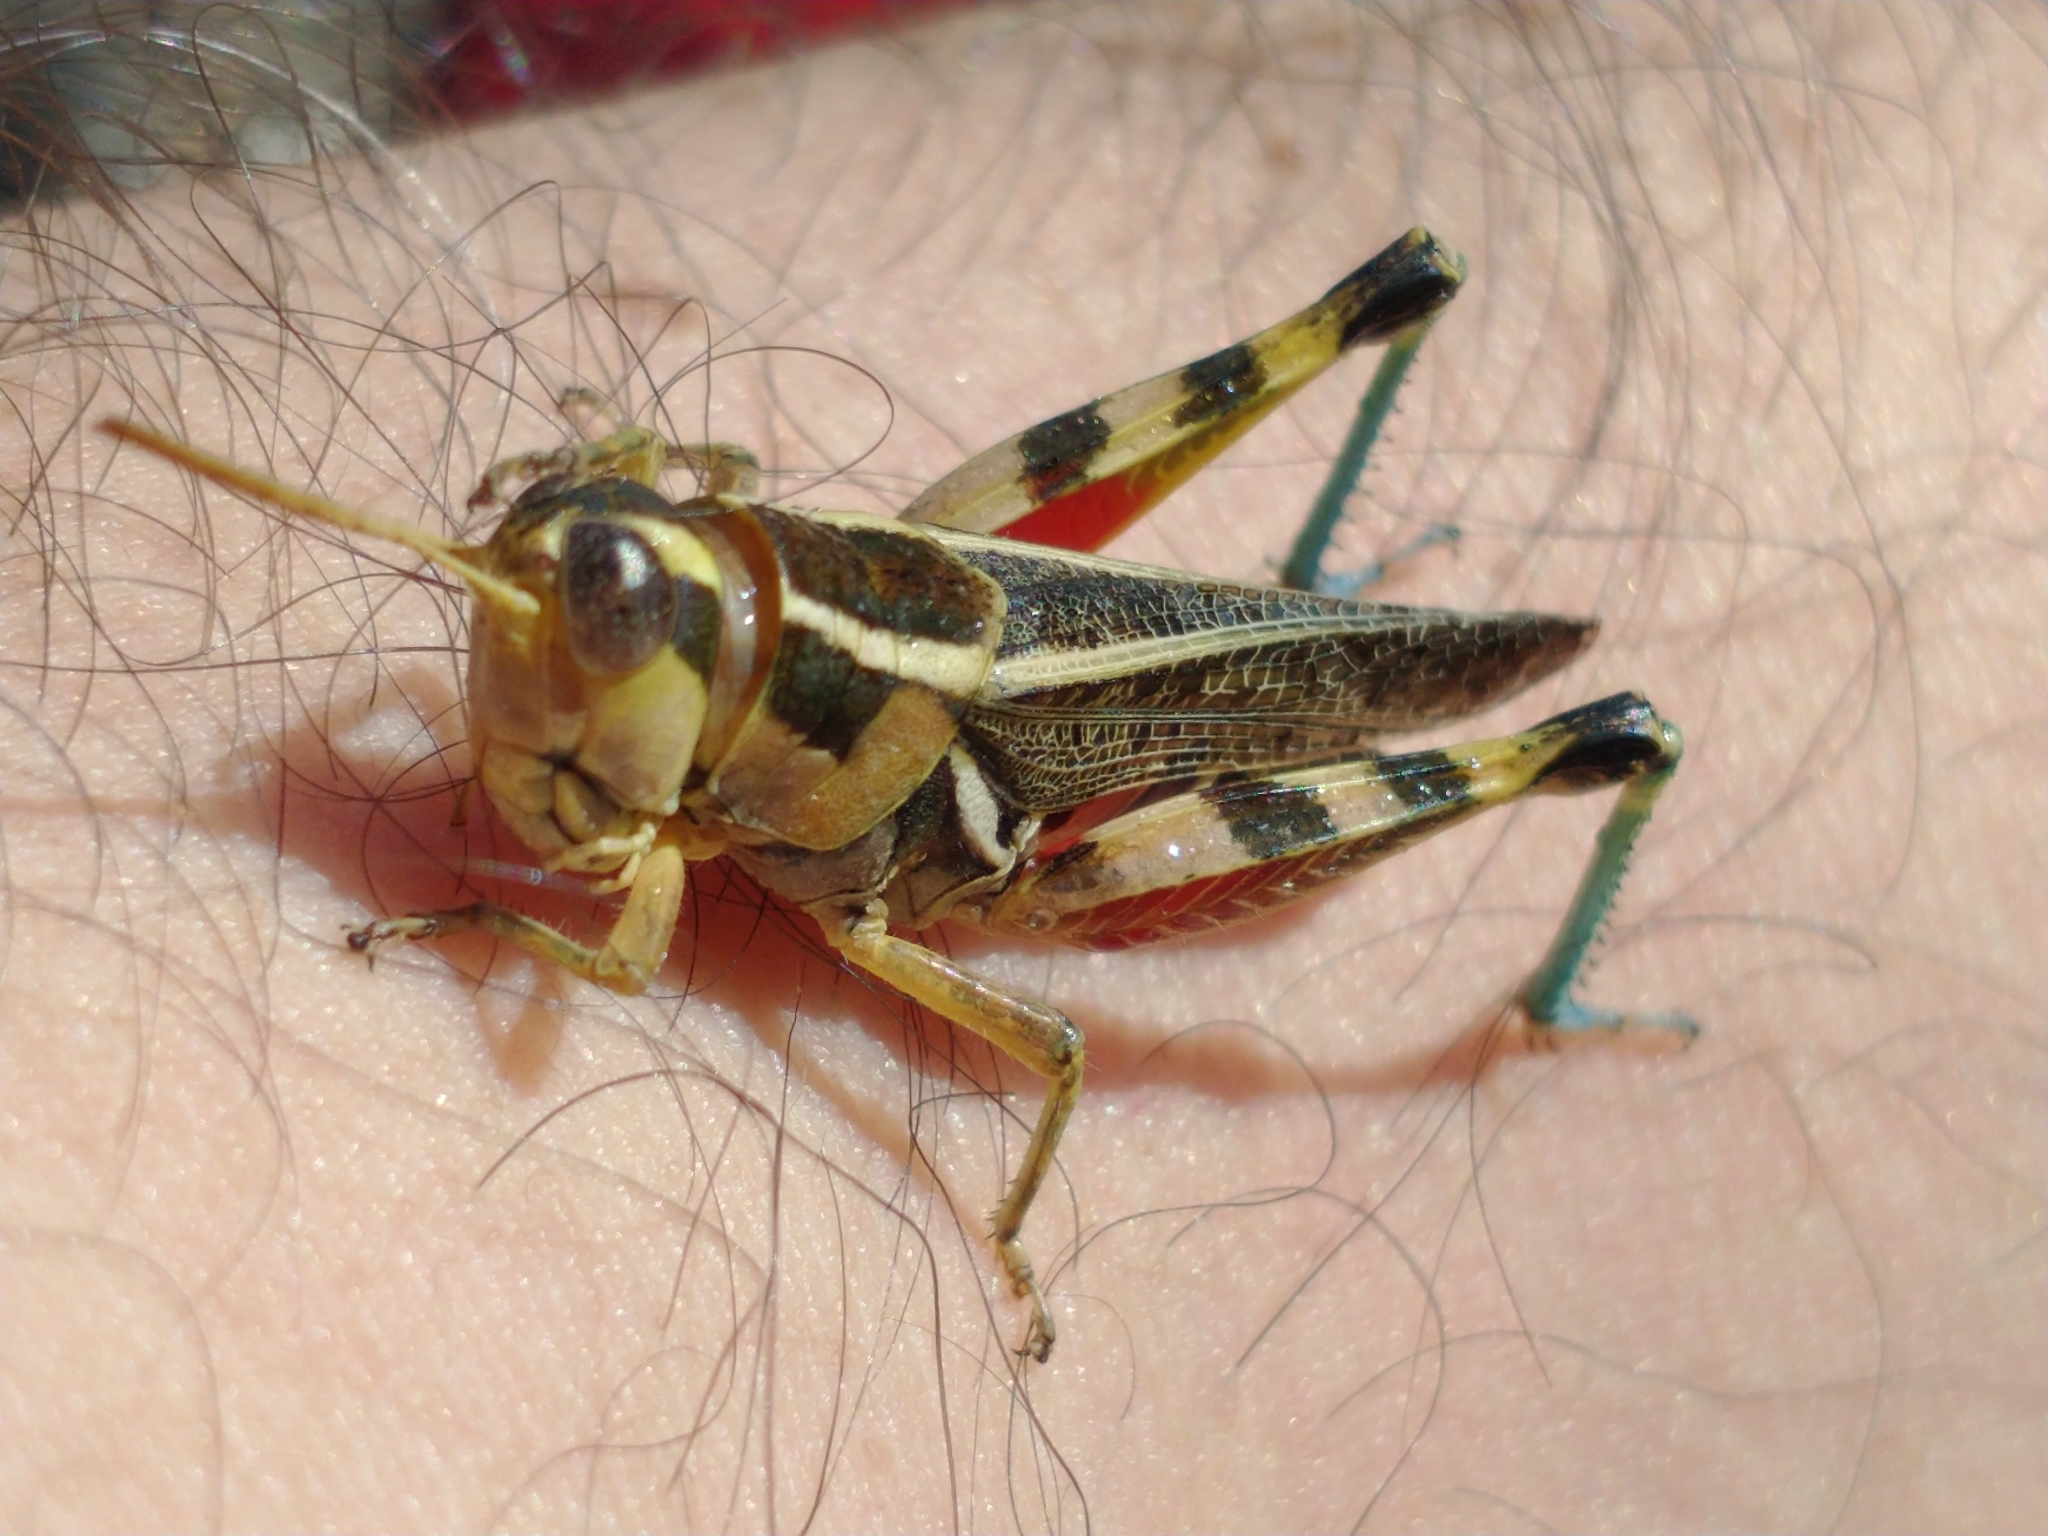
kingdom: Animalia
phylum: Arthropoda
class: Insecta
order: Orthoptera
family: Acrididae
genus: Dichroplus
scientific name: Dichroplus vittatus
